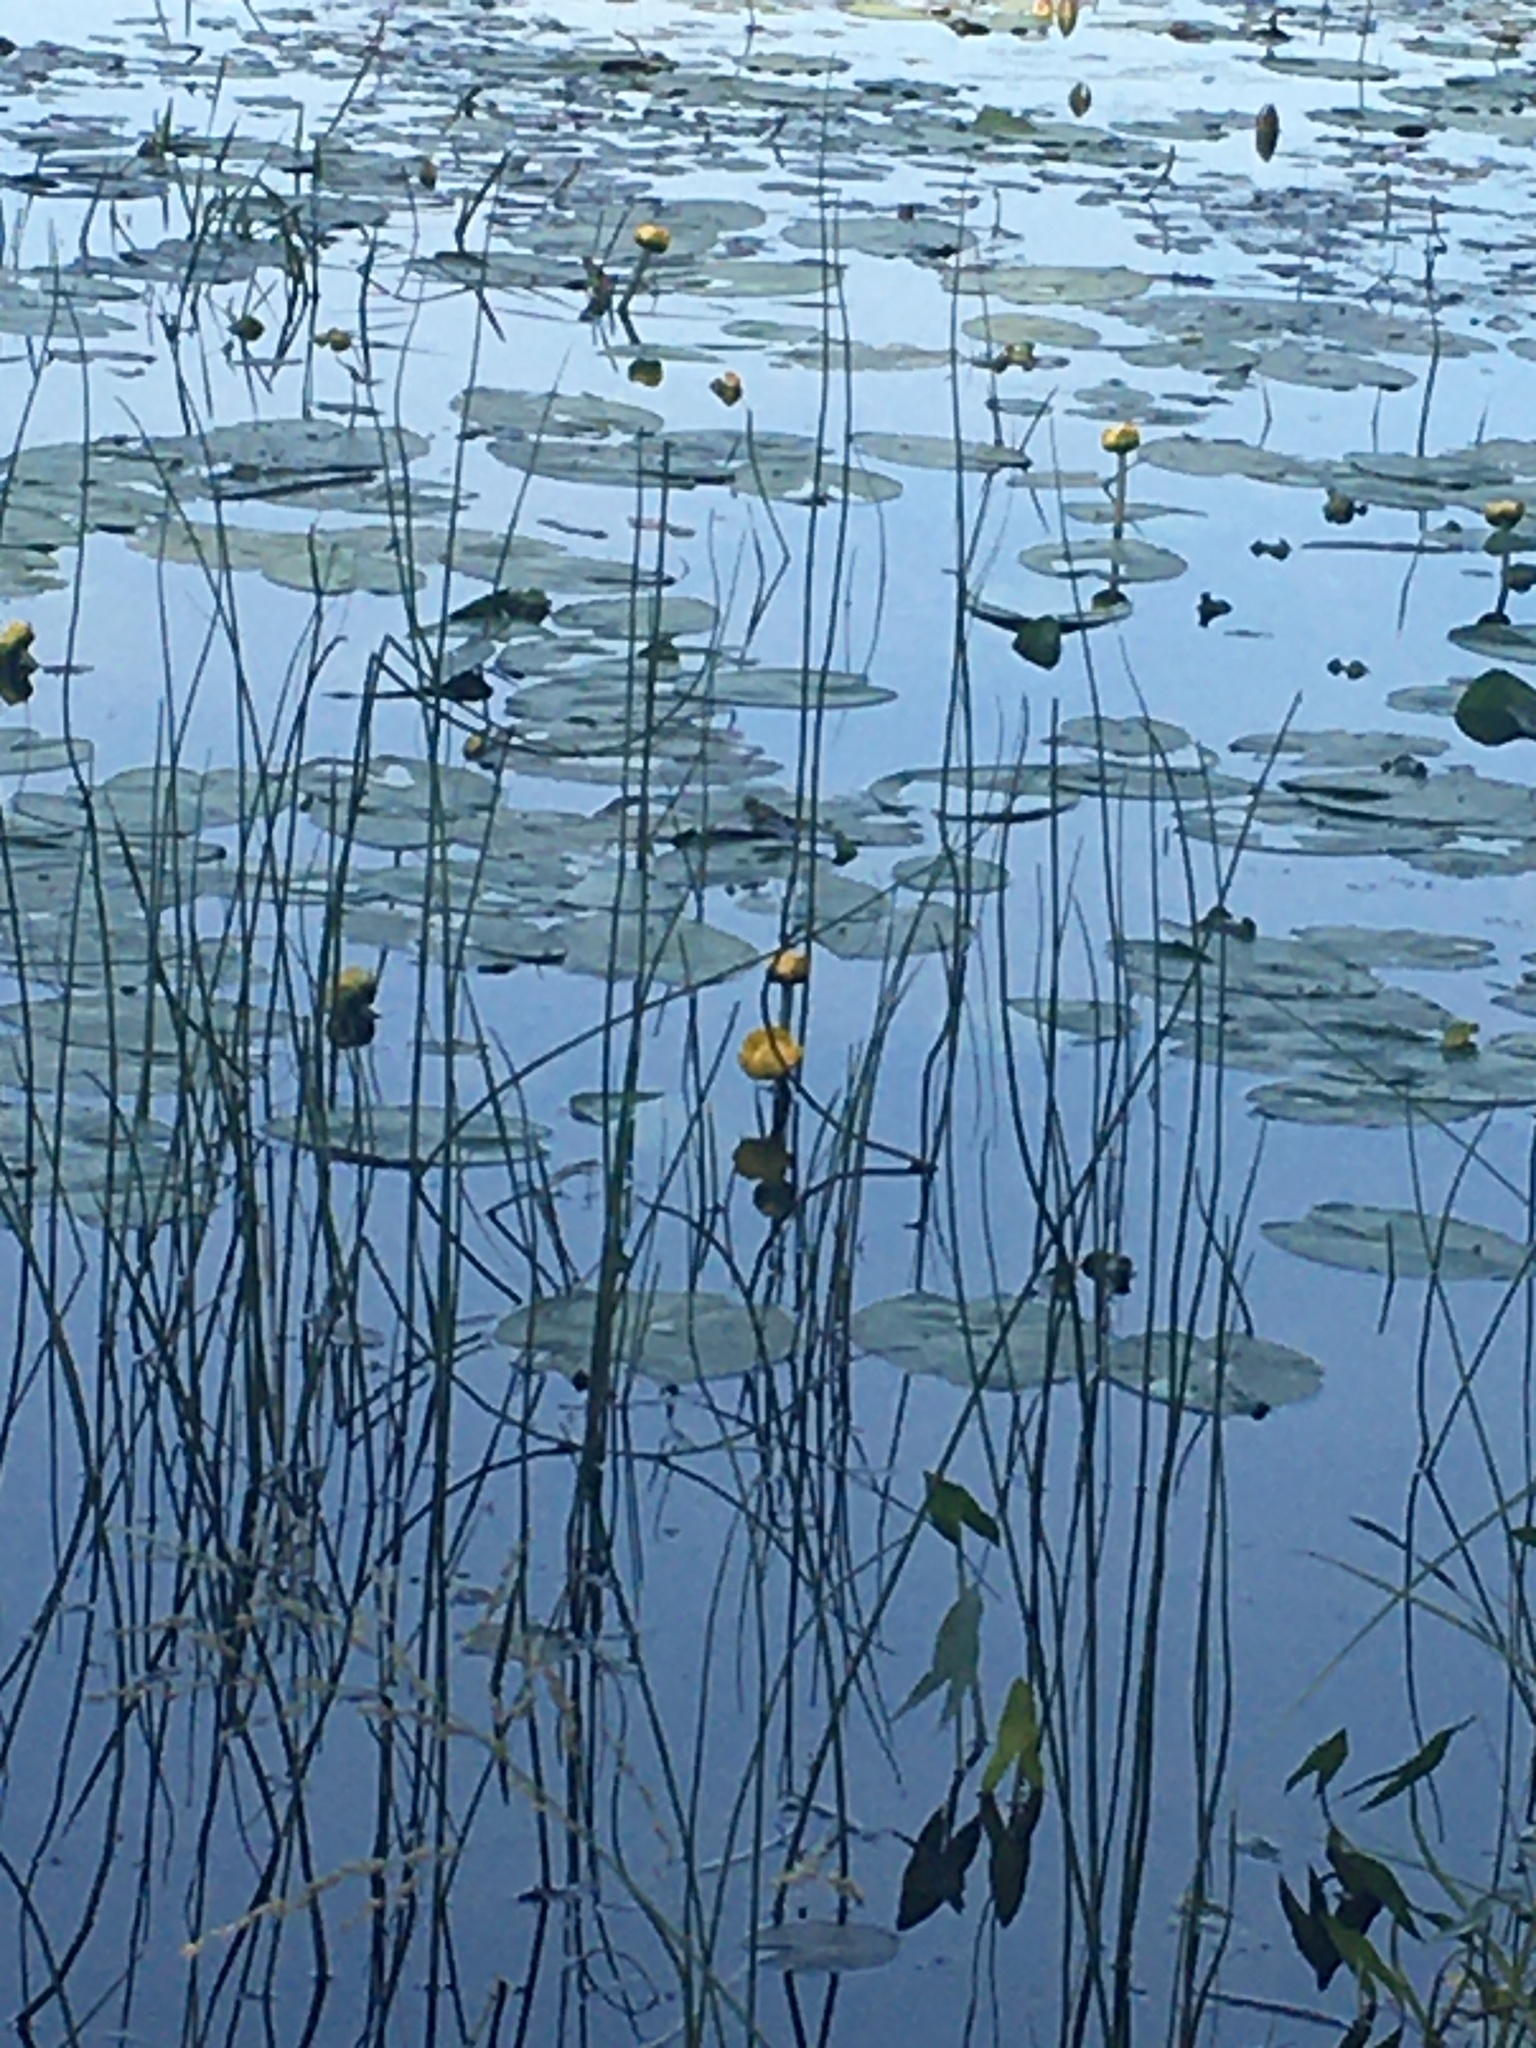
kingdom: Plantae
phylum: Tracheophyta
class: Magnoliopsida
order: Nymphaeales
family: Nymphaeaceae
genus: Nuphar
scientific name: Nuphar lutea
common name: Yellow water-lily
